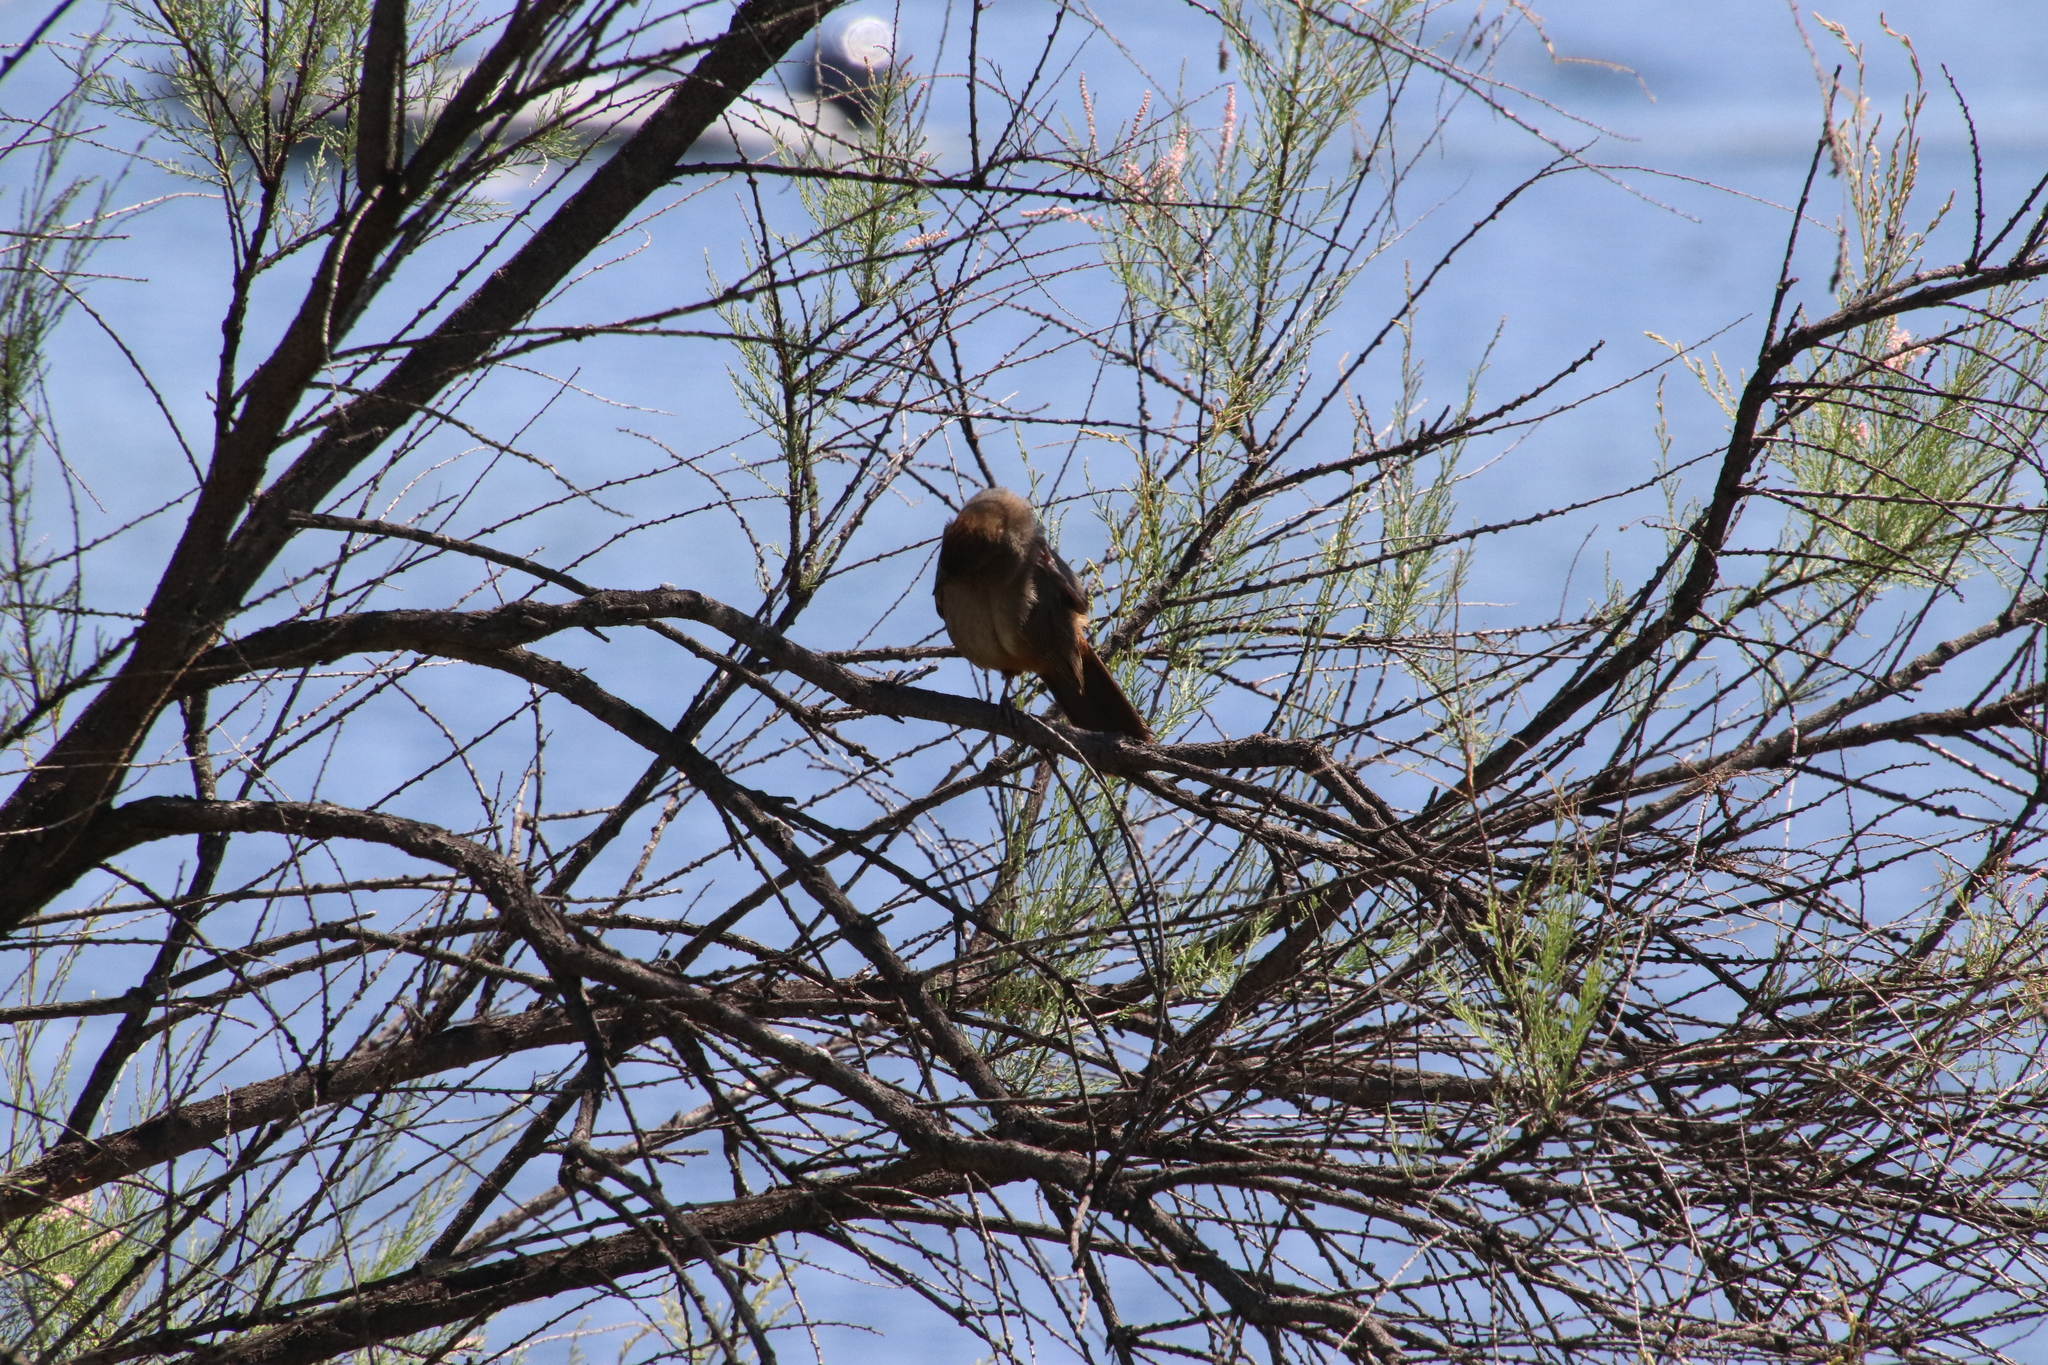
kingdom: Animalia
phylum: Chordata
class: Aves
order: Passeriformes
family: Passerellidae
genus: Melozone
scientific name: Melozone crissalis
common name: California towhee
